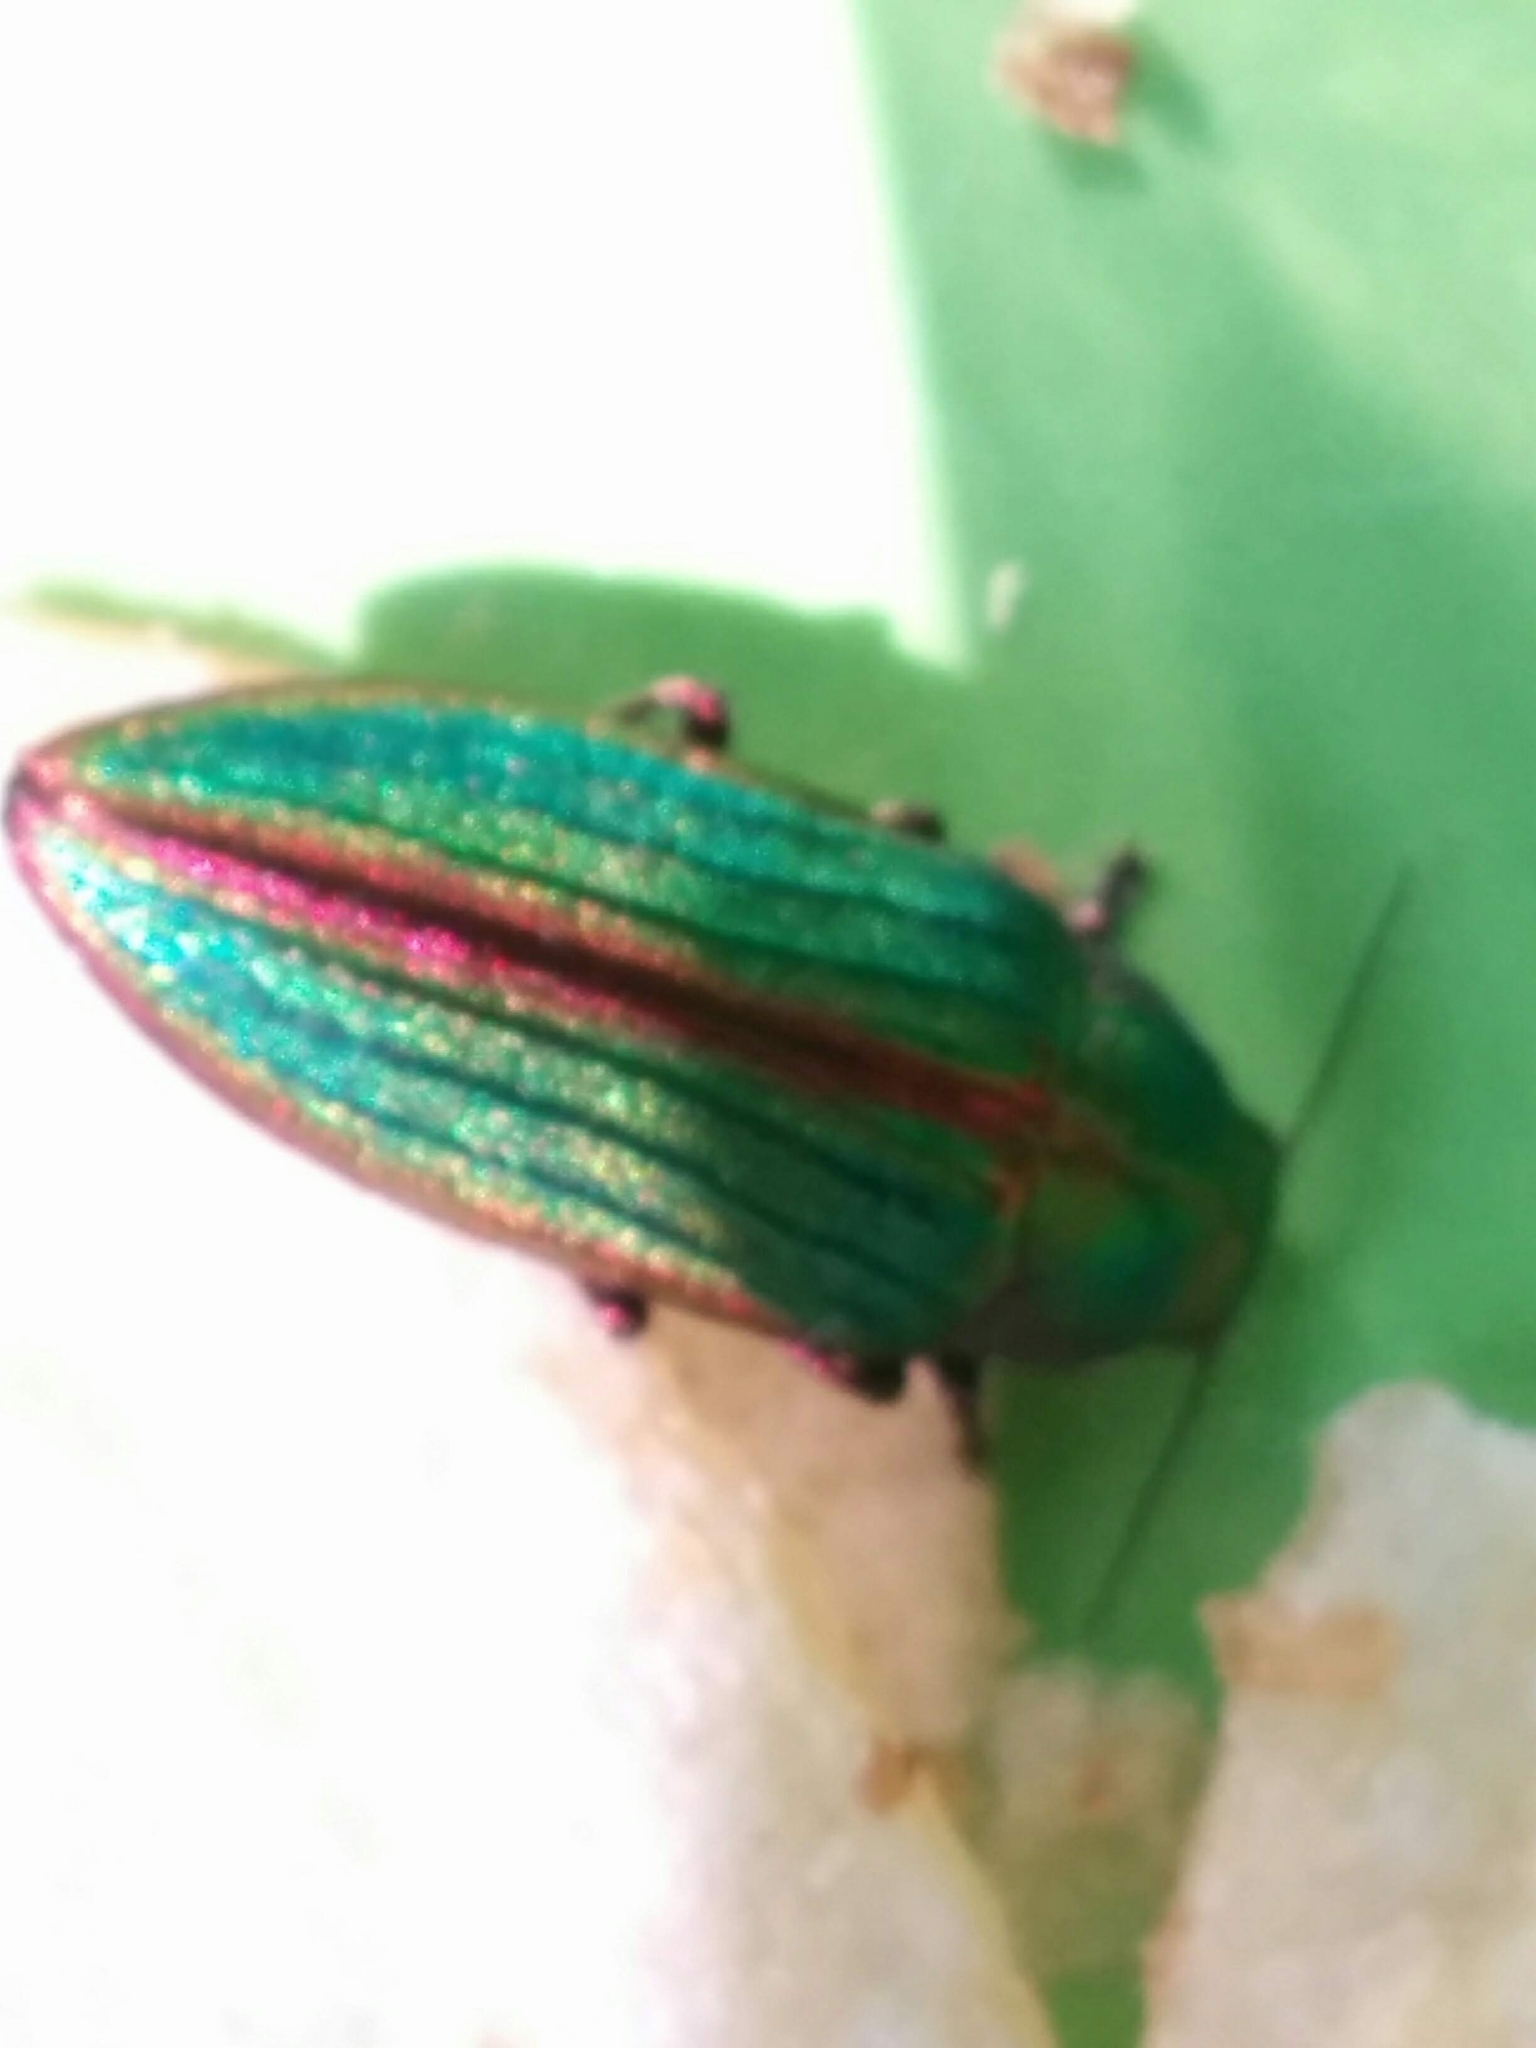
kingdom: Animalia
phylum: Arthropoda
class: Insecta
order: Coleoptera
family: Buprestidae
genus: Buprestis
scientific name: Buprestis aurulenta
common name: Golden buprestid
